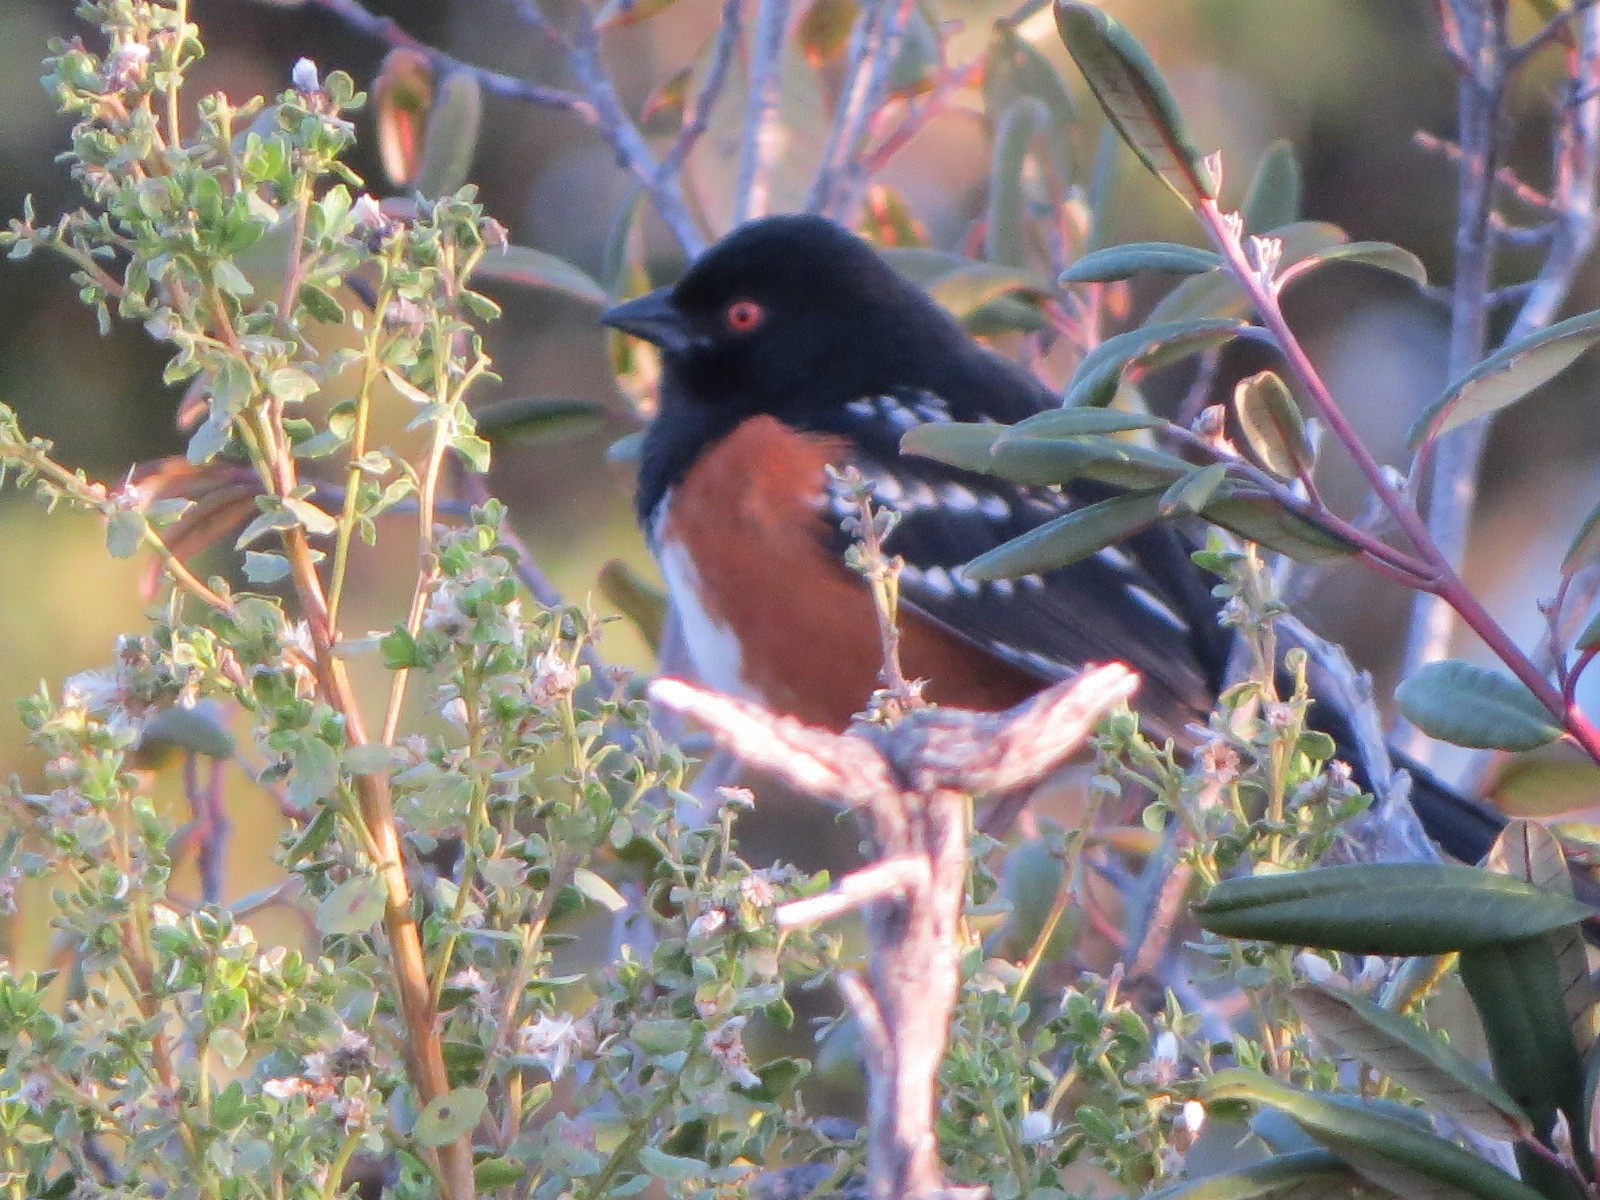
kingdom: Animalia
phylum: Chordata
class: Aves
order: Passeriformes
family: Passerellidae
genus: Pipilo
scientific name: Pipilo maculatus
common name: Spotted towhee
